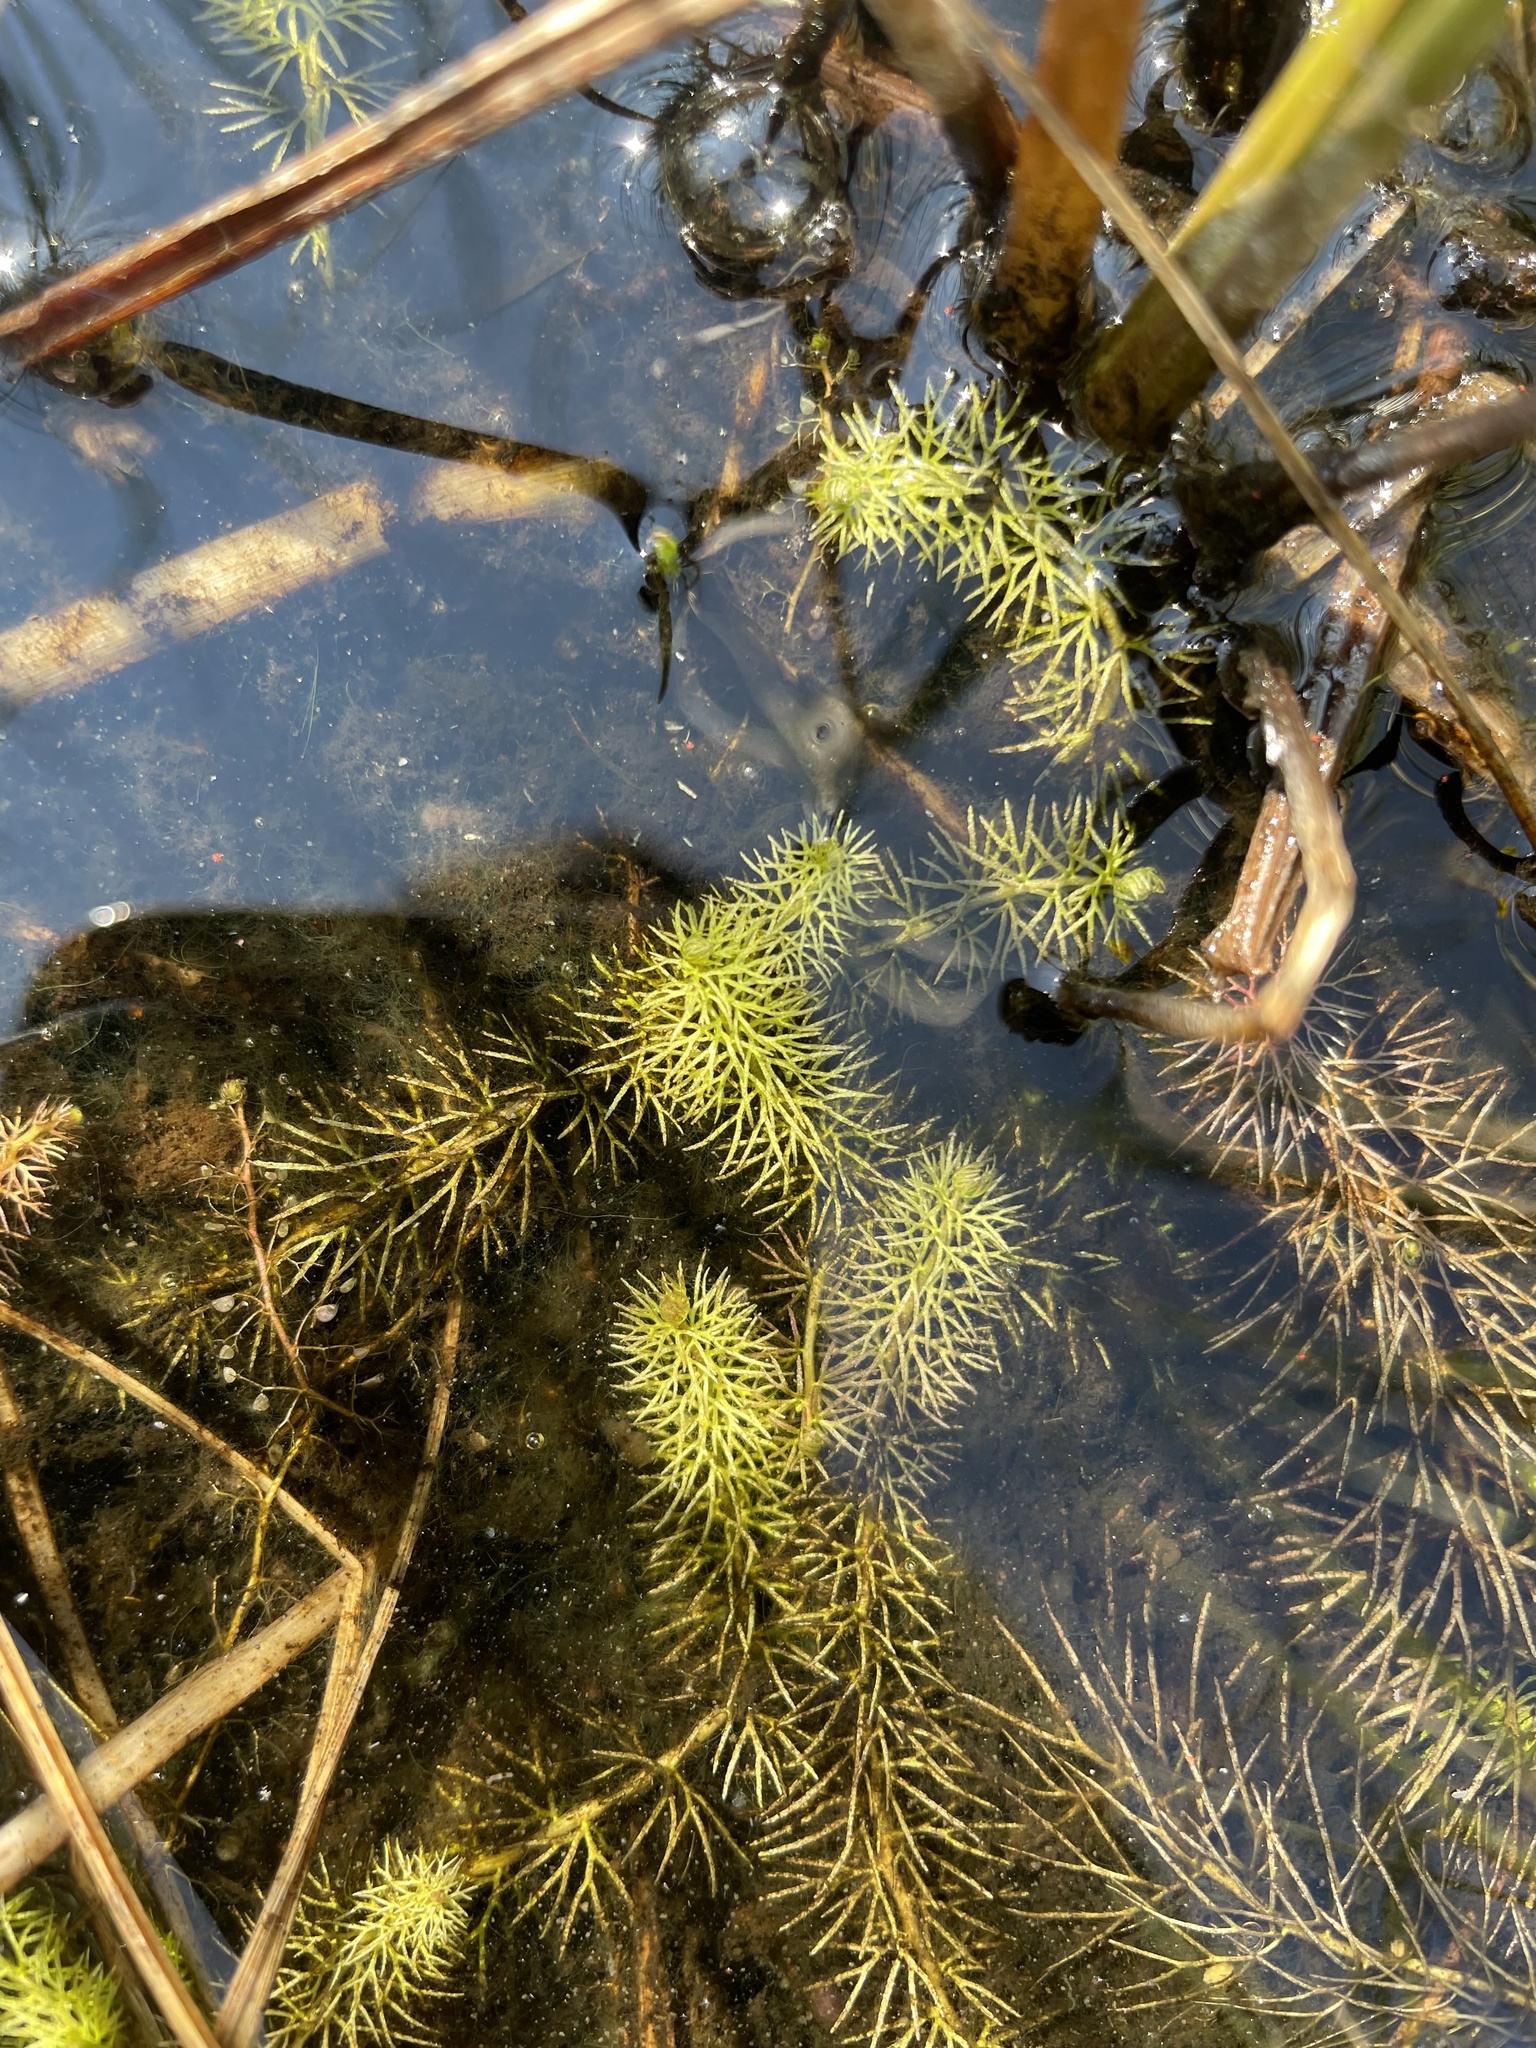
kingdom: Plantae
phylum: Tracheophyta
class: Magnoliopsida
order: Lamiales
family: Lentibulariaceae
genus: Utricularia
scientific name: Utricularia intermedia
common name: Intermediate bladderwort
